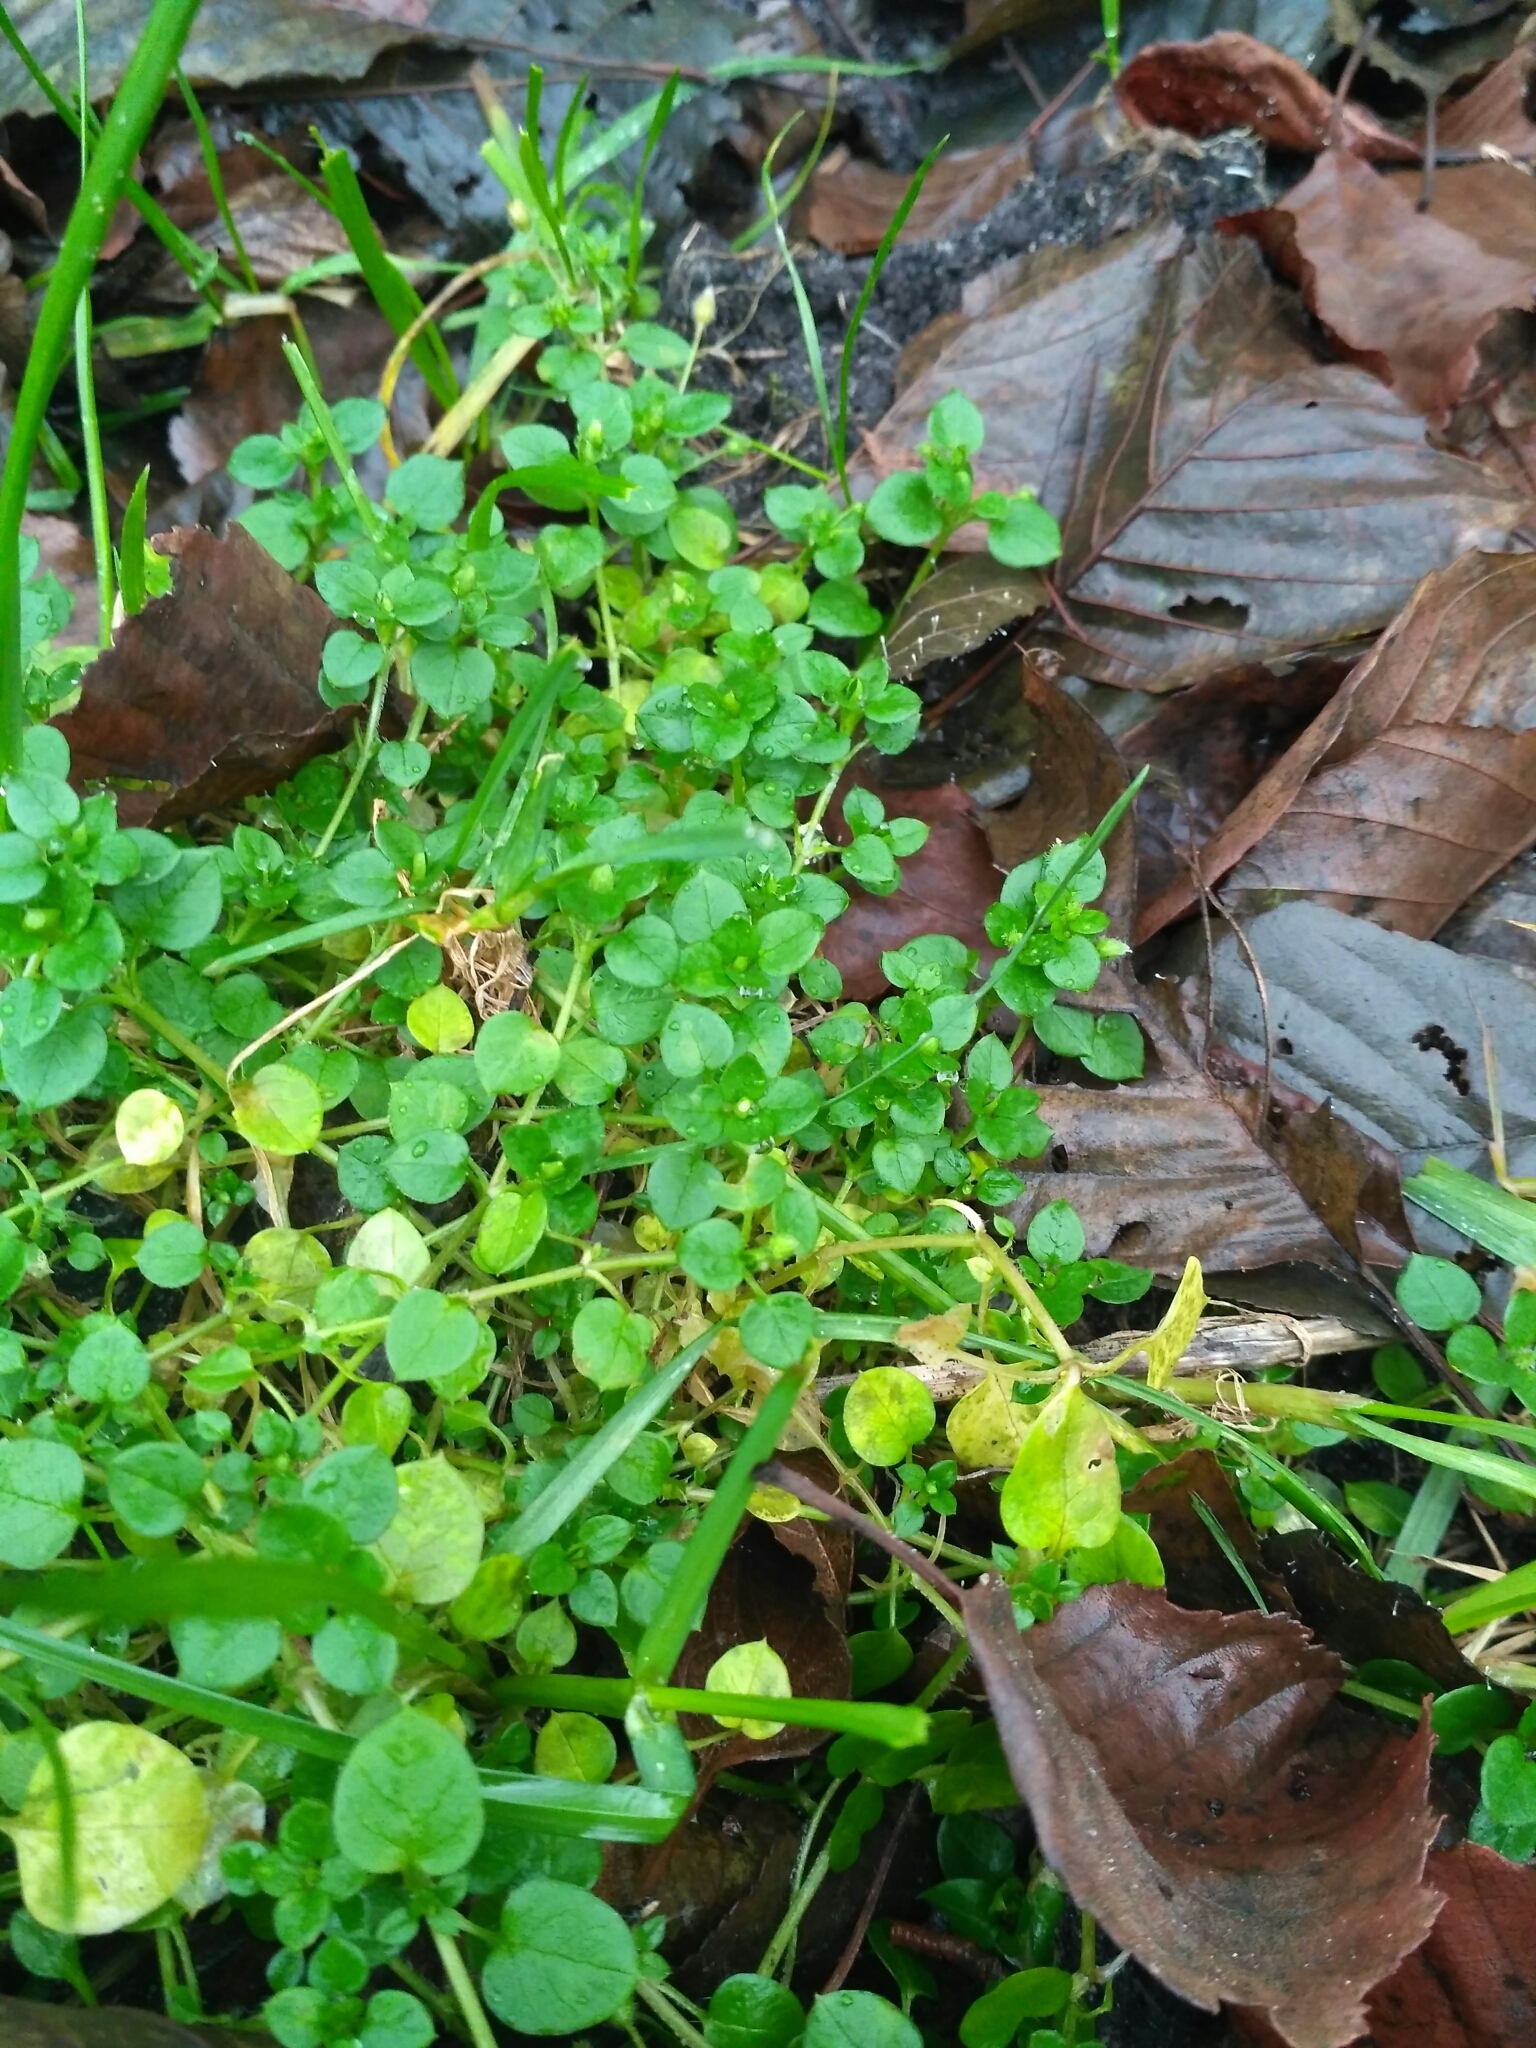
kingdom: Plantae
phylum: Tracheophyta
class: Magnoliopsida
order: Caryophyllales
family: Caryophyllaceae
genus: Stellaria
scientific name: Stellaria media
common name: Common chickweed
